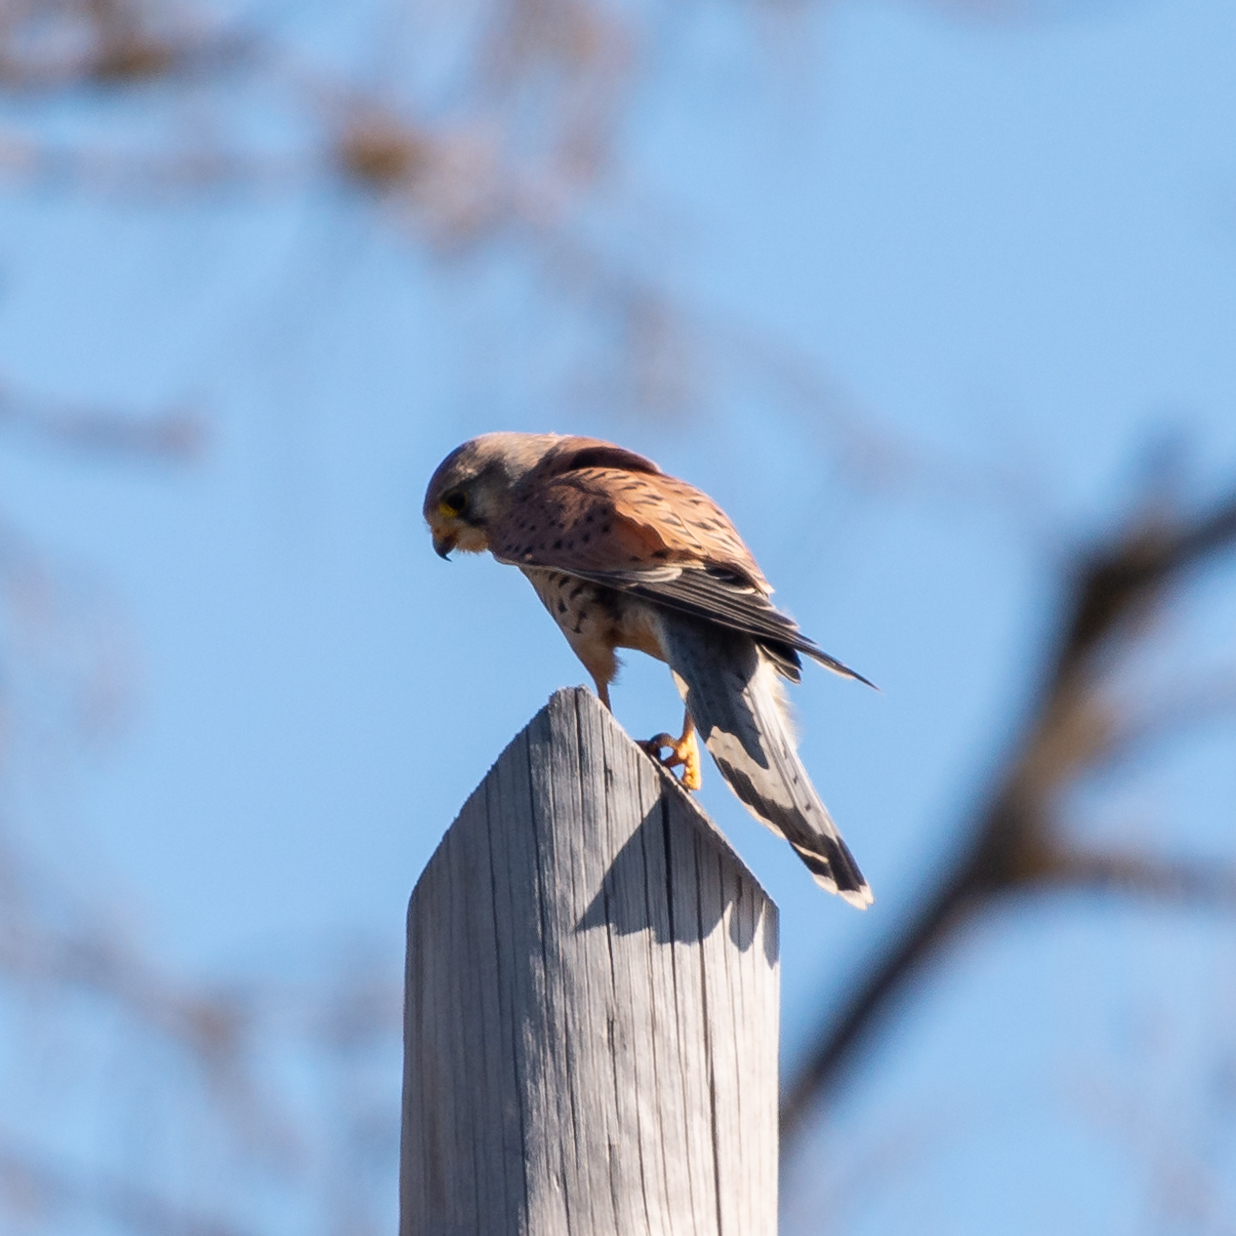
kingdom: Animalia
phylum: Chordata
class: Aves
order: Falconiformes
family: Falconidae
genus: Falco
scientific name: Falco tinnunculus
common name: Common kestrel
